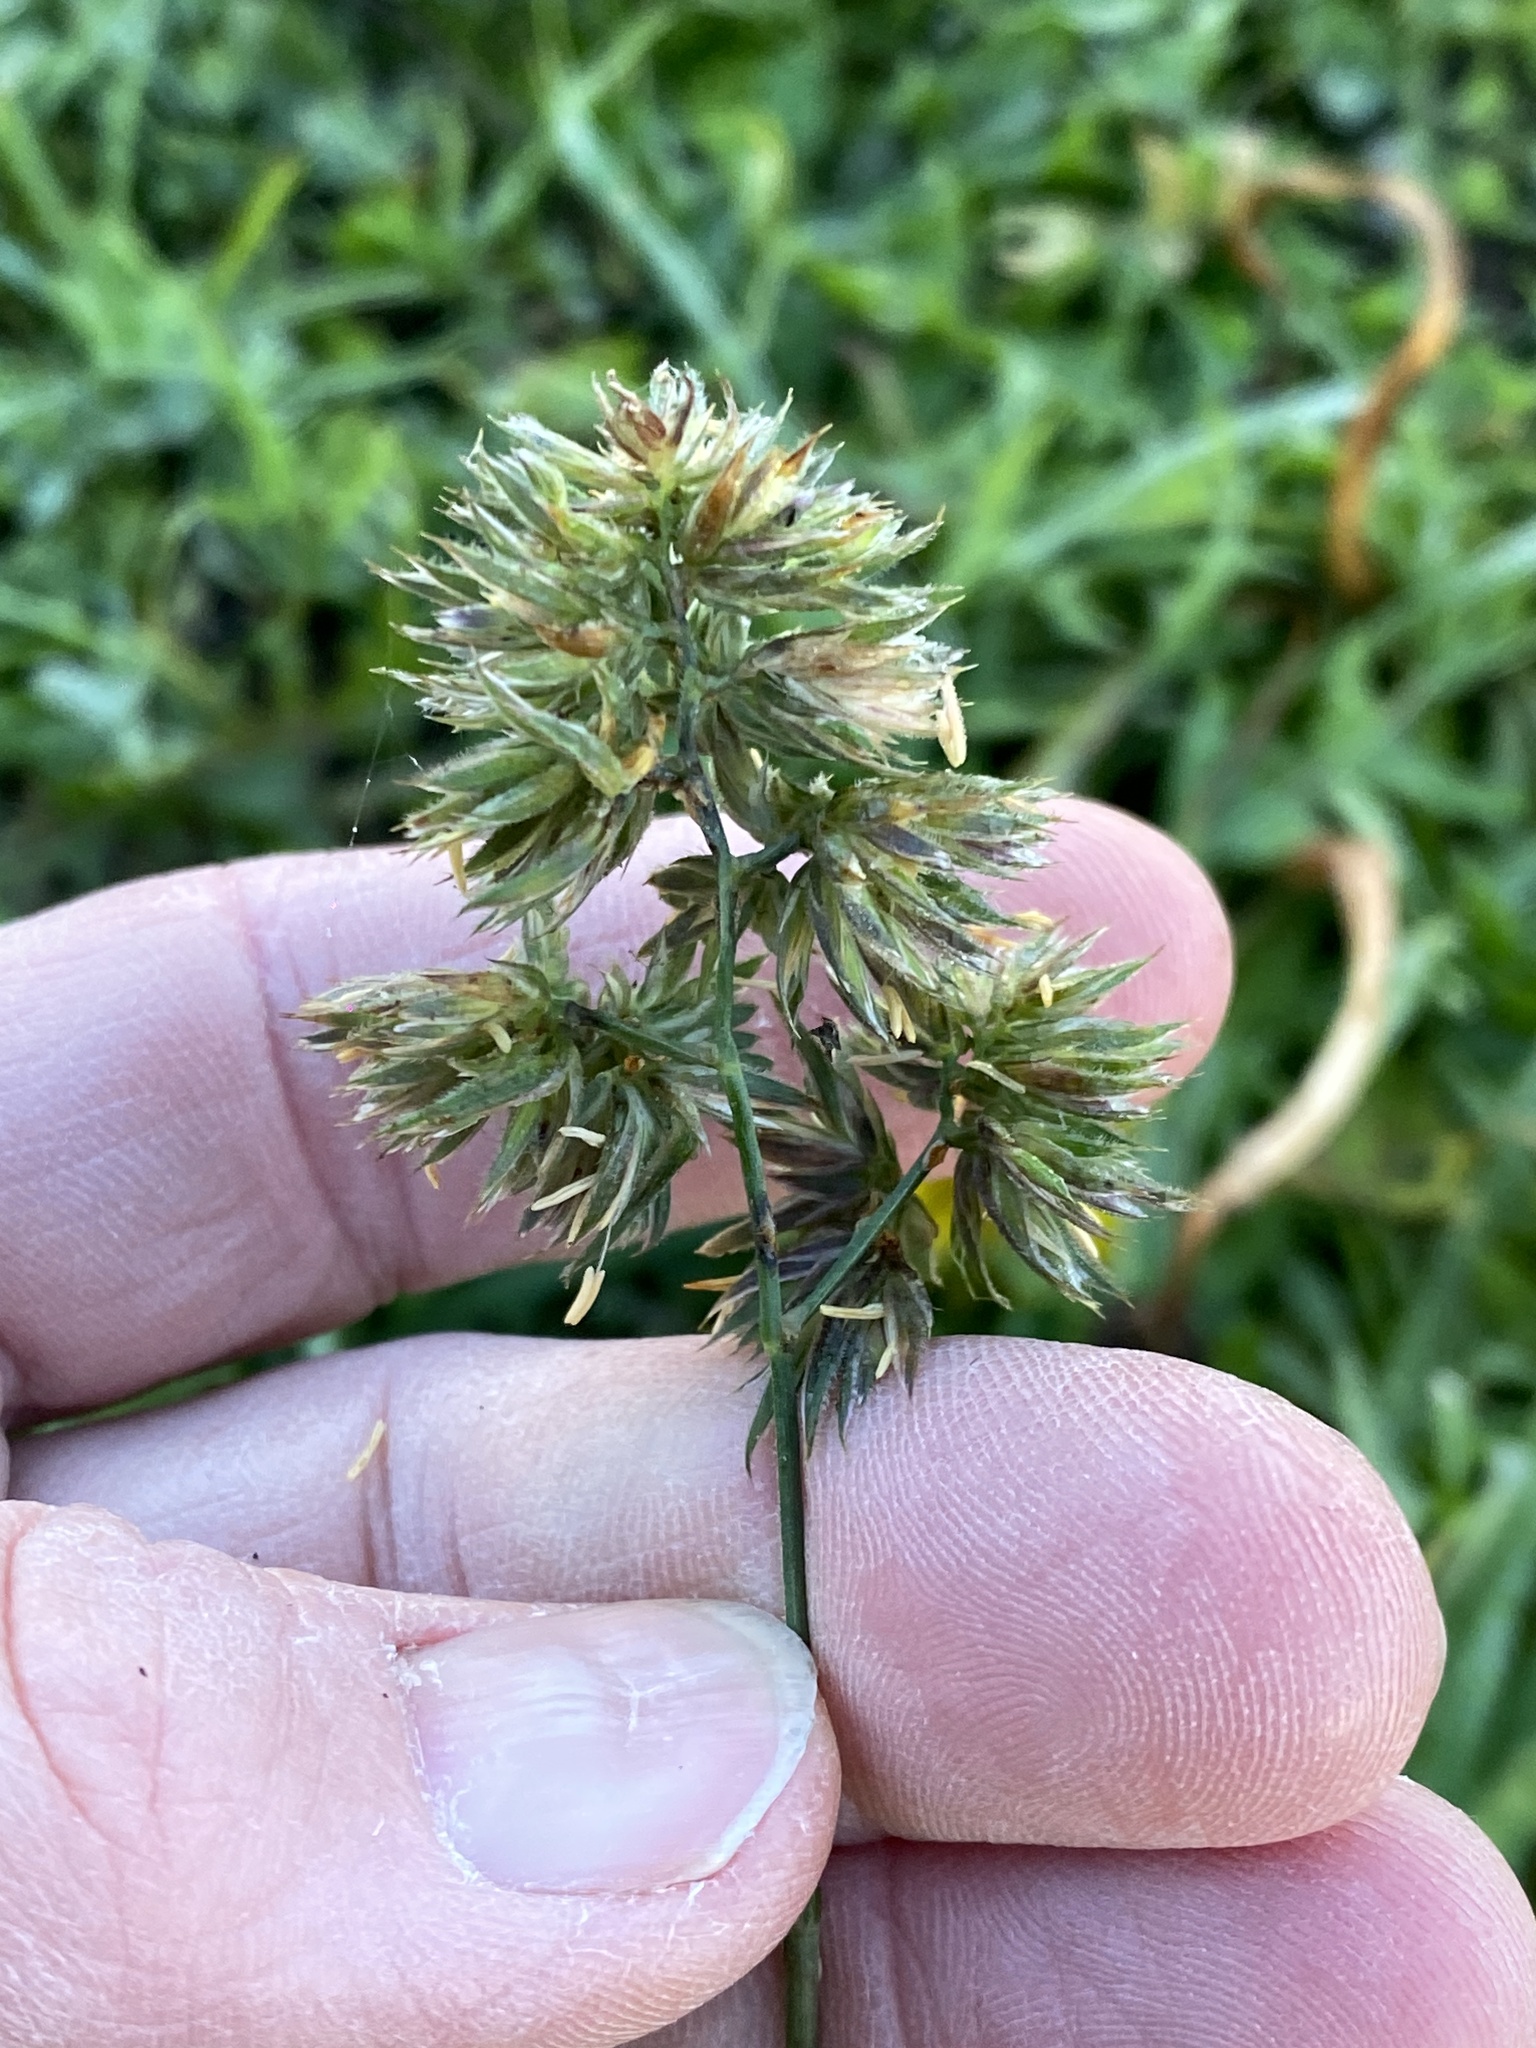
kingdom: Plantae
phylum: Tracheophyta
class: Liliopsida
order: Poales
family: Poaceae
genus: Dactylis
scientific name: Dactylis glomerata
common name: Orchardgrass
